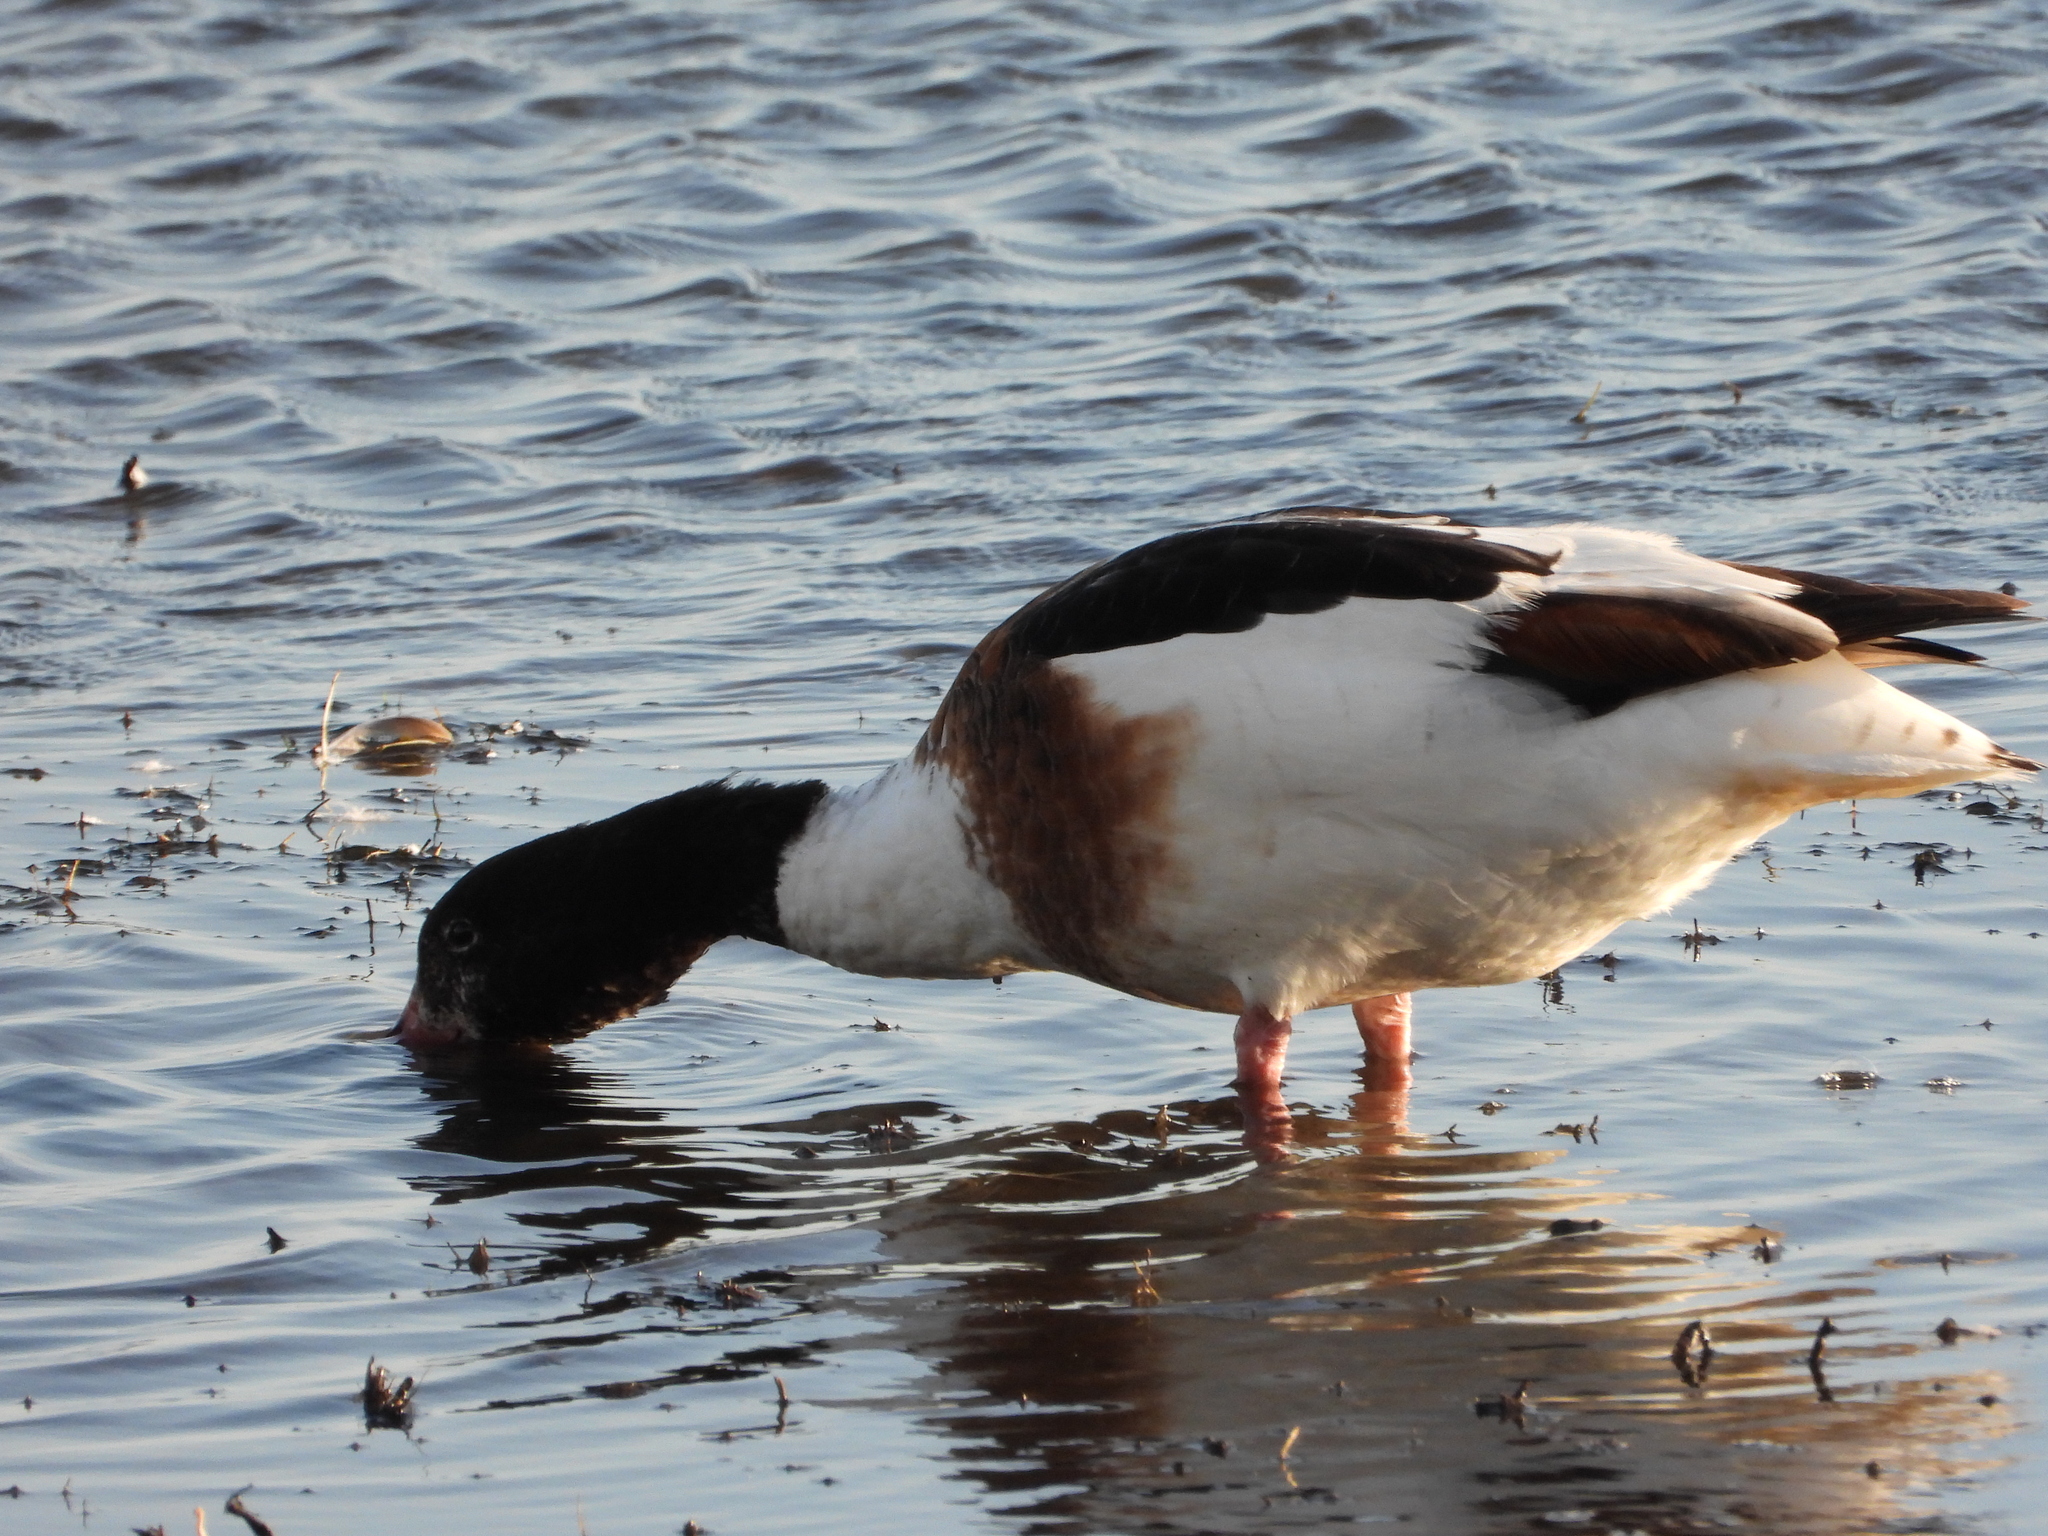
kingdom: Animalia
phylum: Chordata
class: Aves
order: Anseriformes
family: Anatidae
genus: Tadorna
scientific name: Tadorna tadorna
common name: Common shelduck
